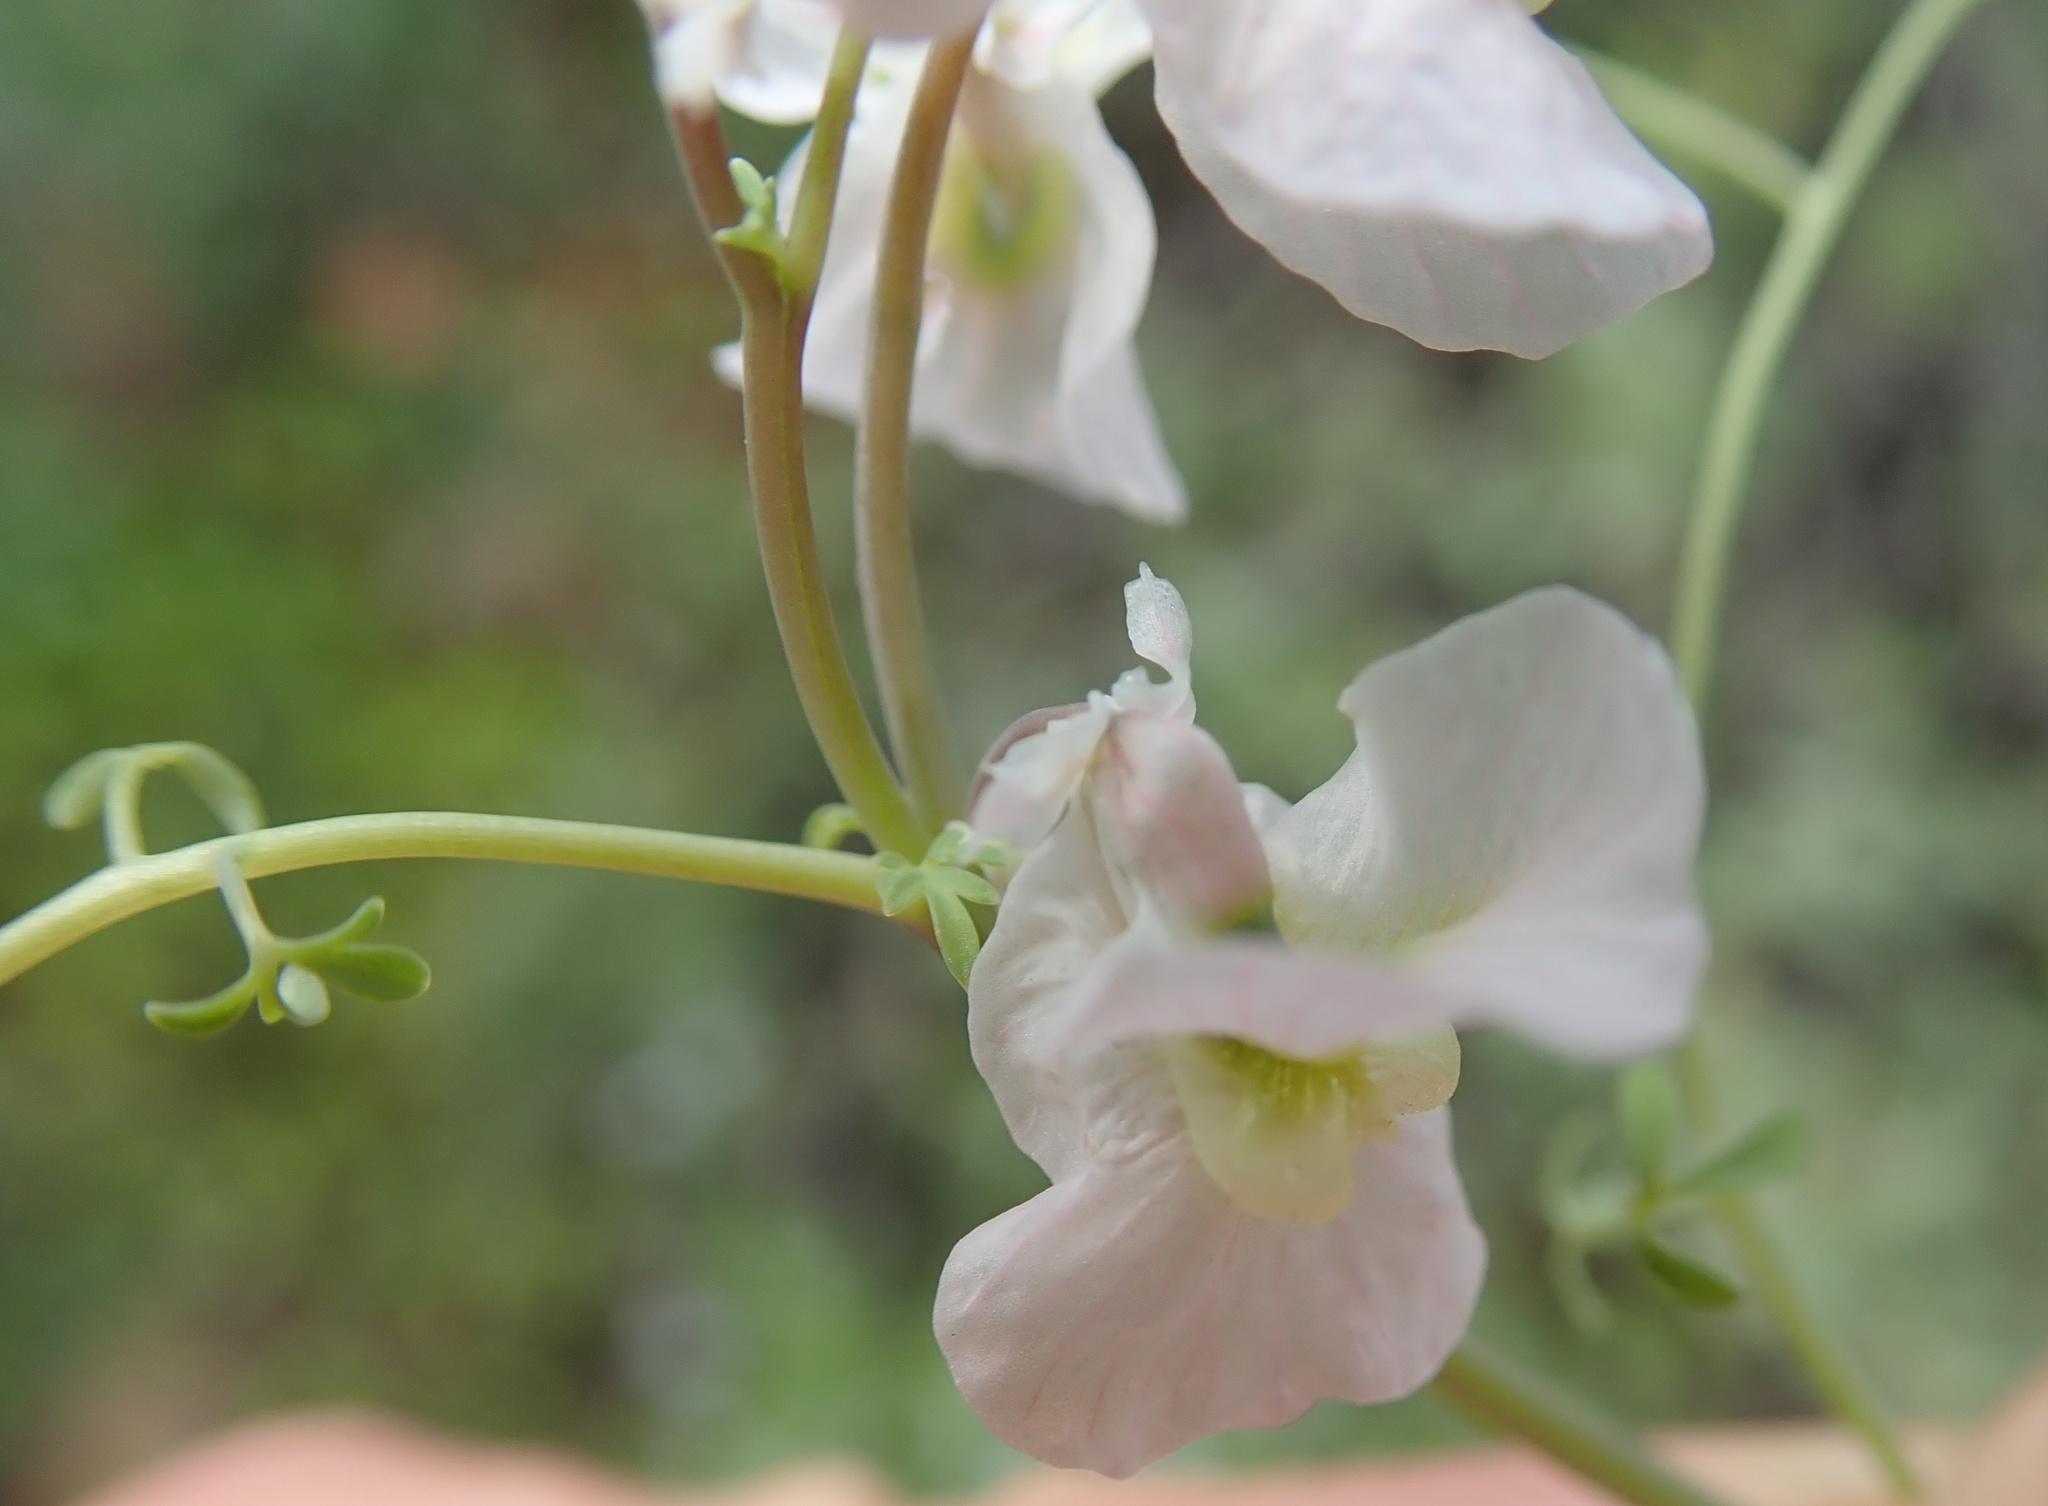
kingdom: Plantae
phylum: Tracheophyta
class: Magnoliopsida
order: Ranunculales
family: Papaveraceae
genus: Cysticapnos
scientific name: Cysticapnos vesicaria
